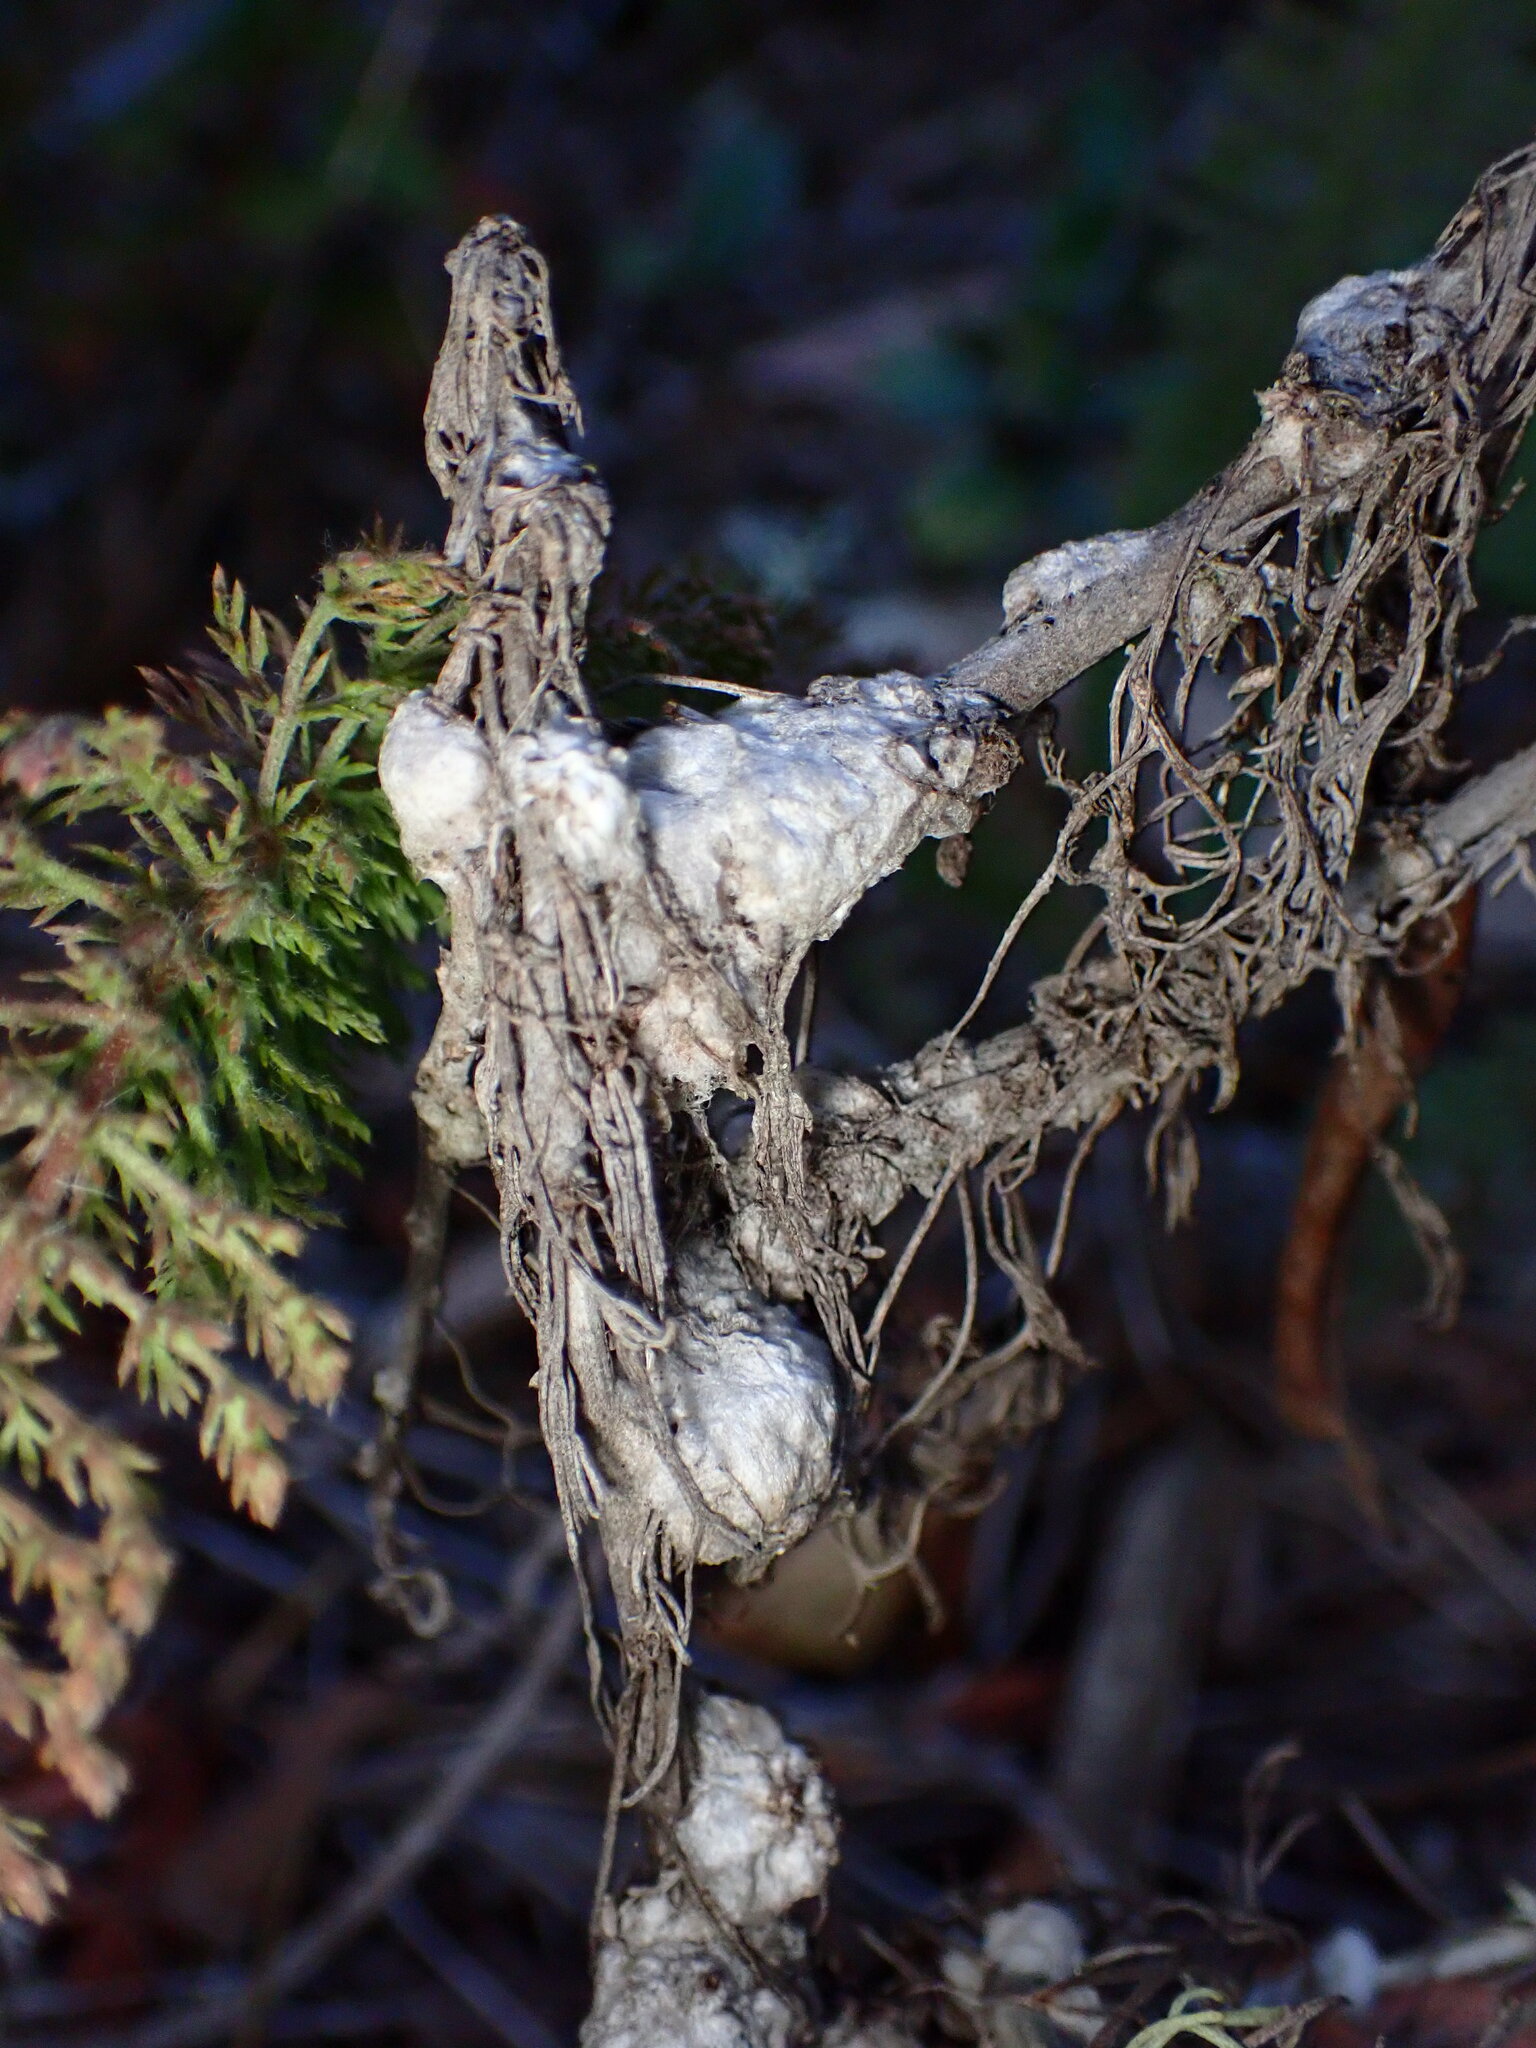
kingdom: Animalia
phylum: Arthropoda
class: Insecta
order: Diptera
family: Cecidomyiidae
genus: Rhopalomyia
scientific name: Rhopalomyia floccosa
